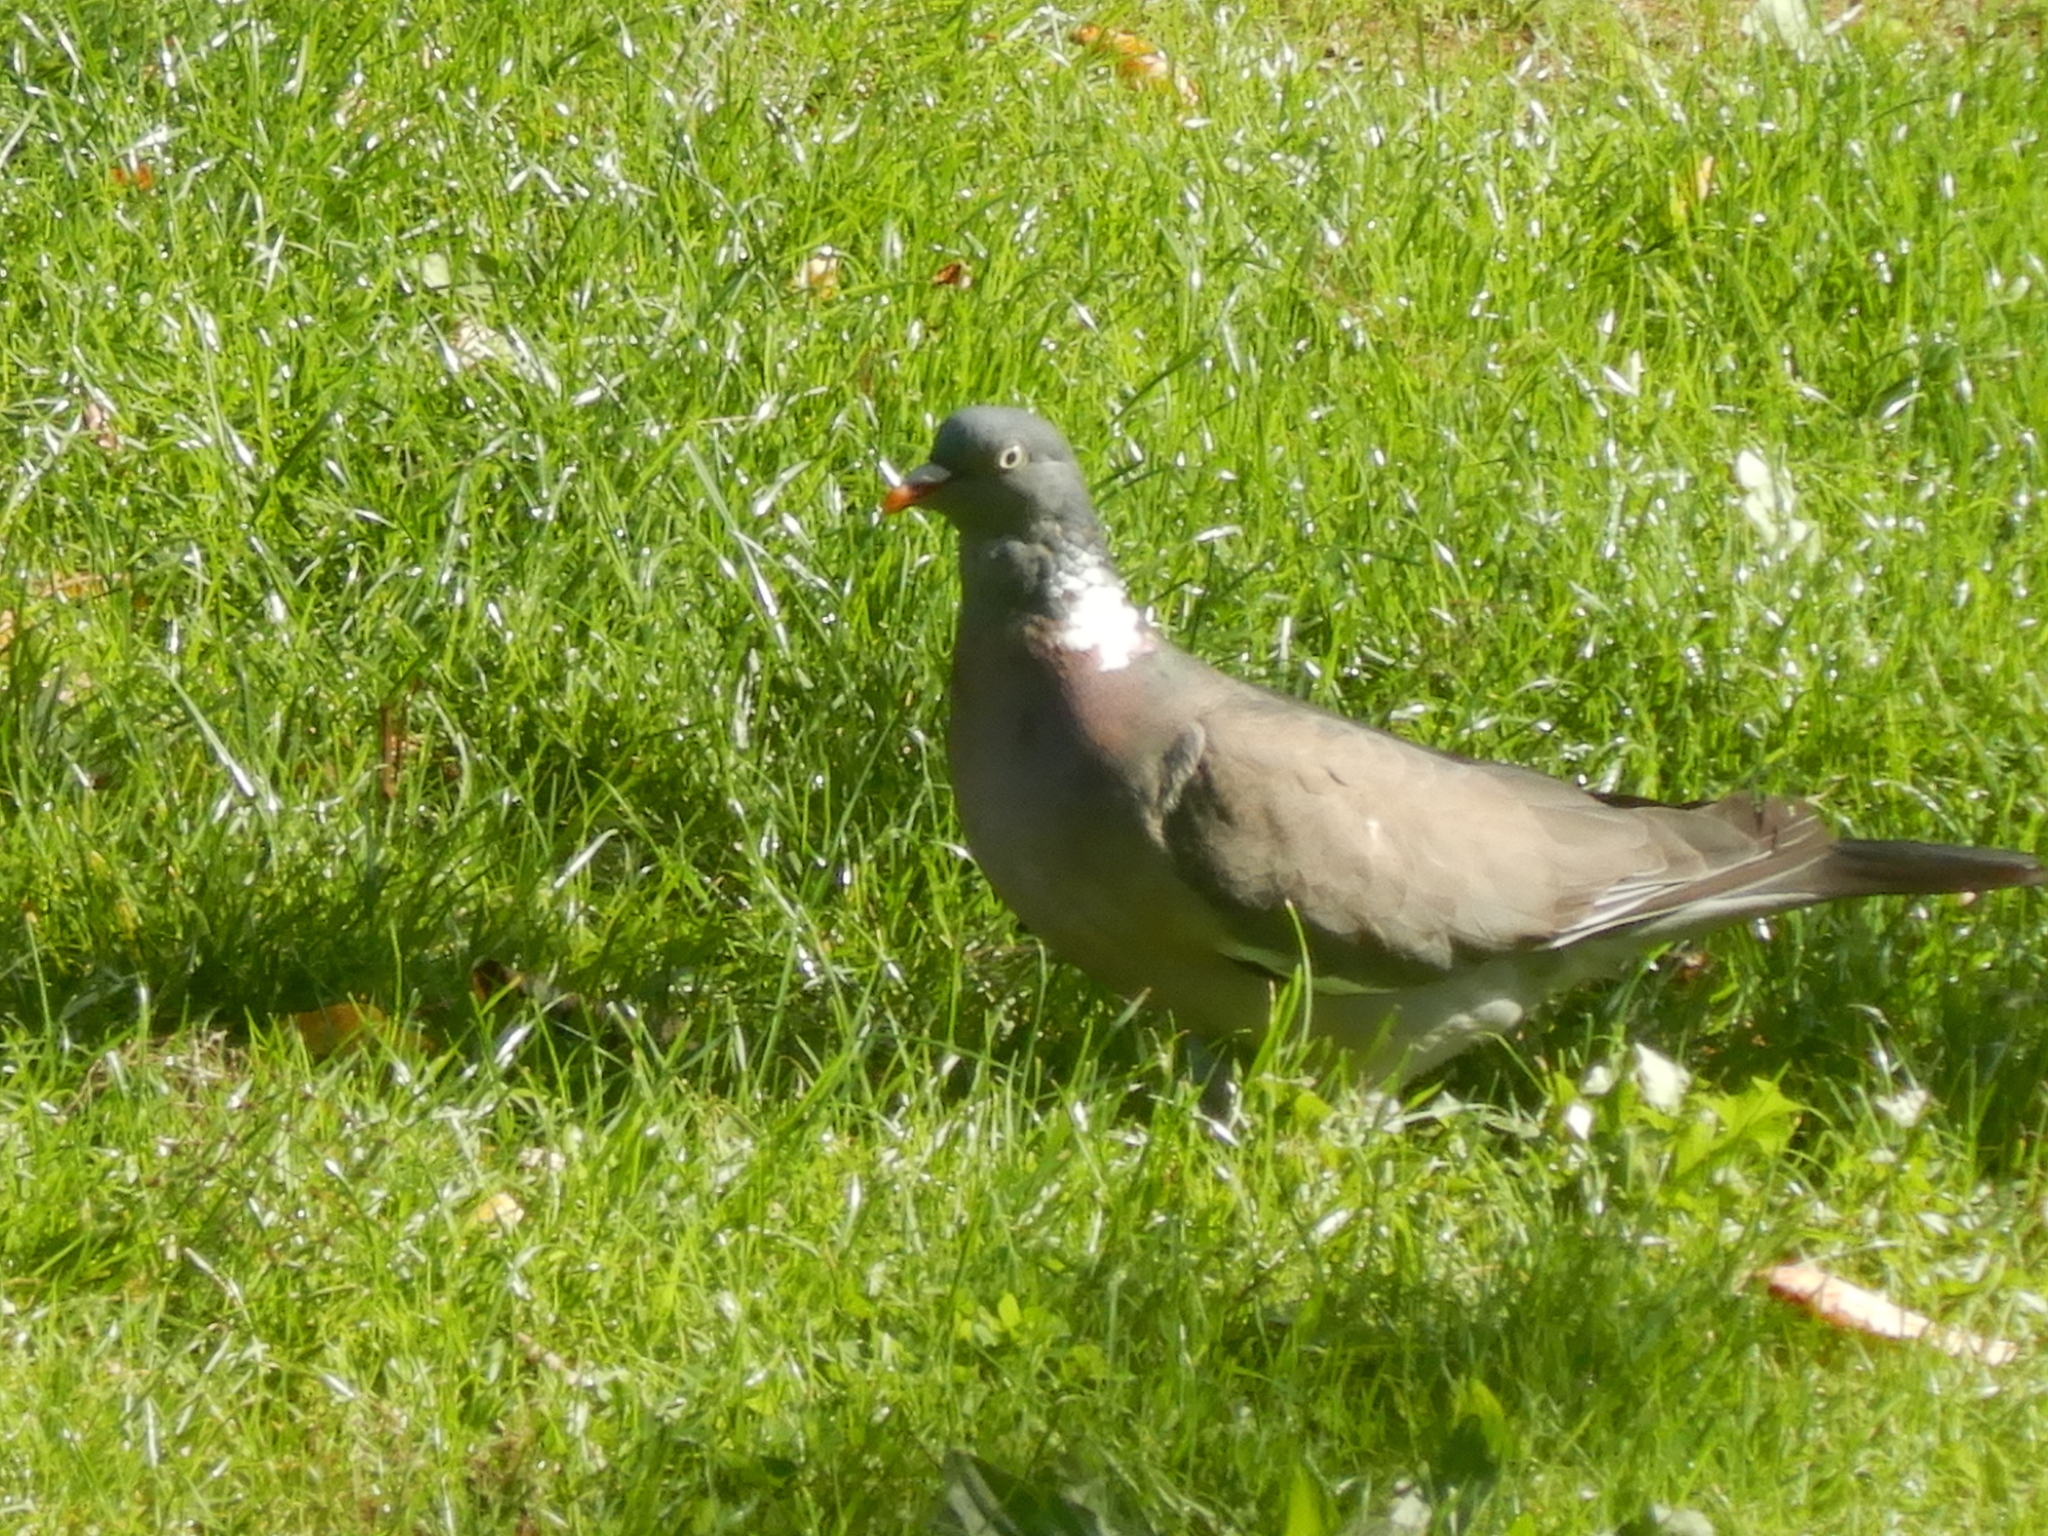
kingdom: Animalia
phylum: Chordata
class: Aves
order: Columbiformes
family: Columbidae
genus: Columba
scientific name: Columba palumbus
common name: Common wood pigeon
